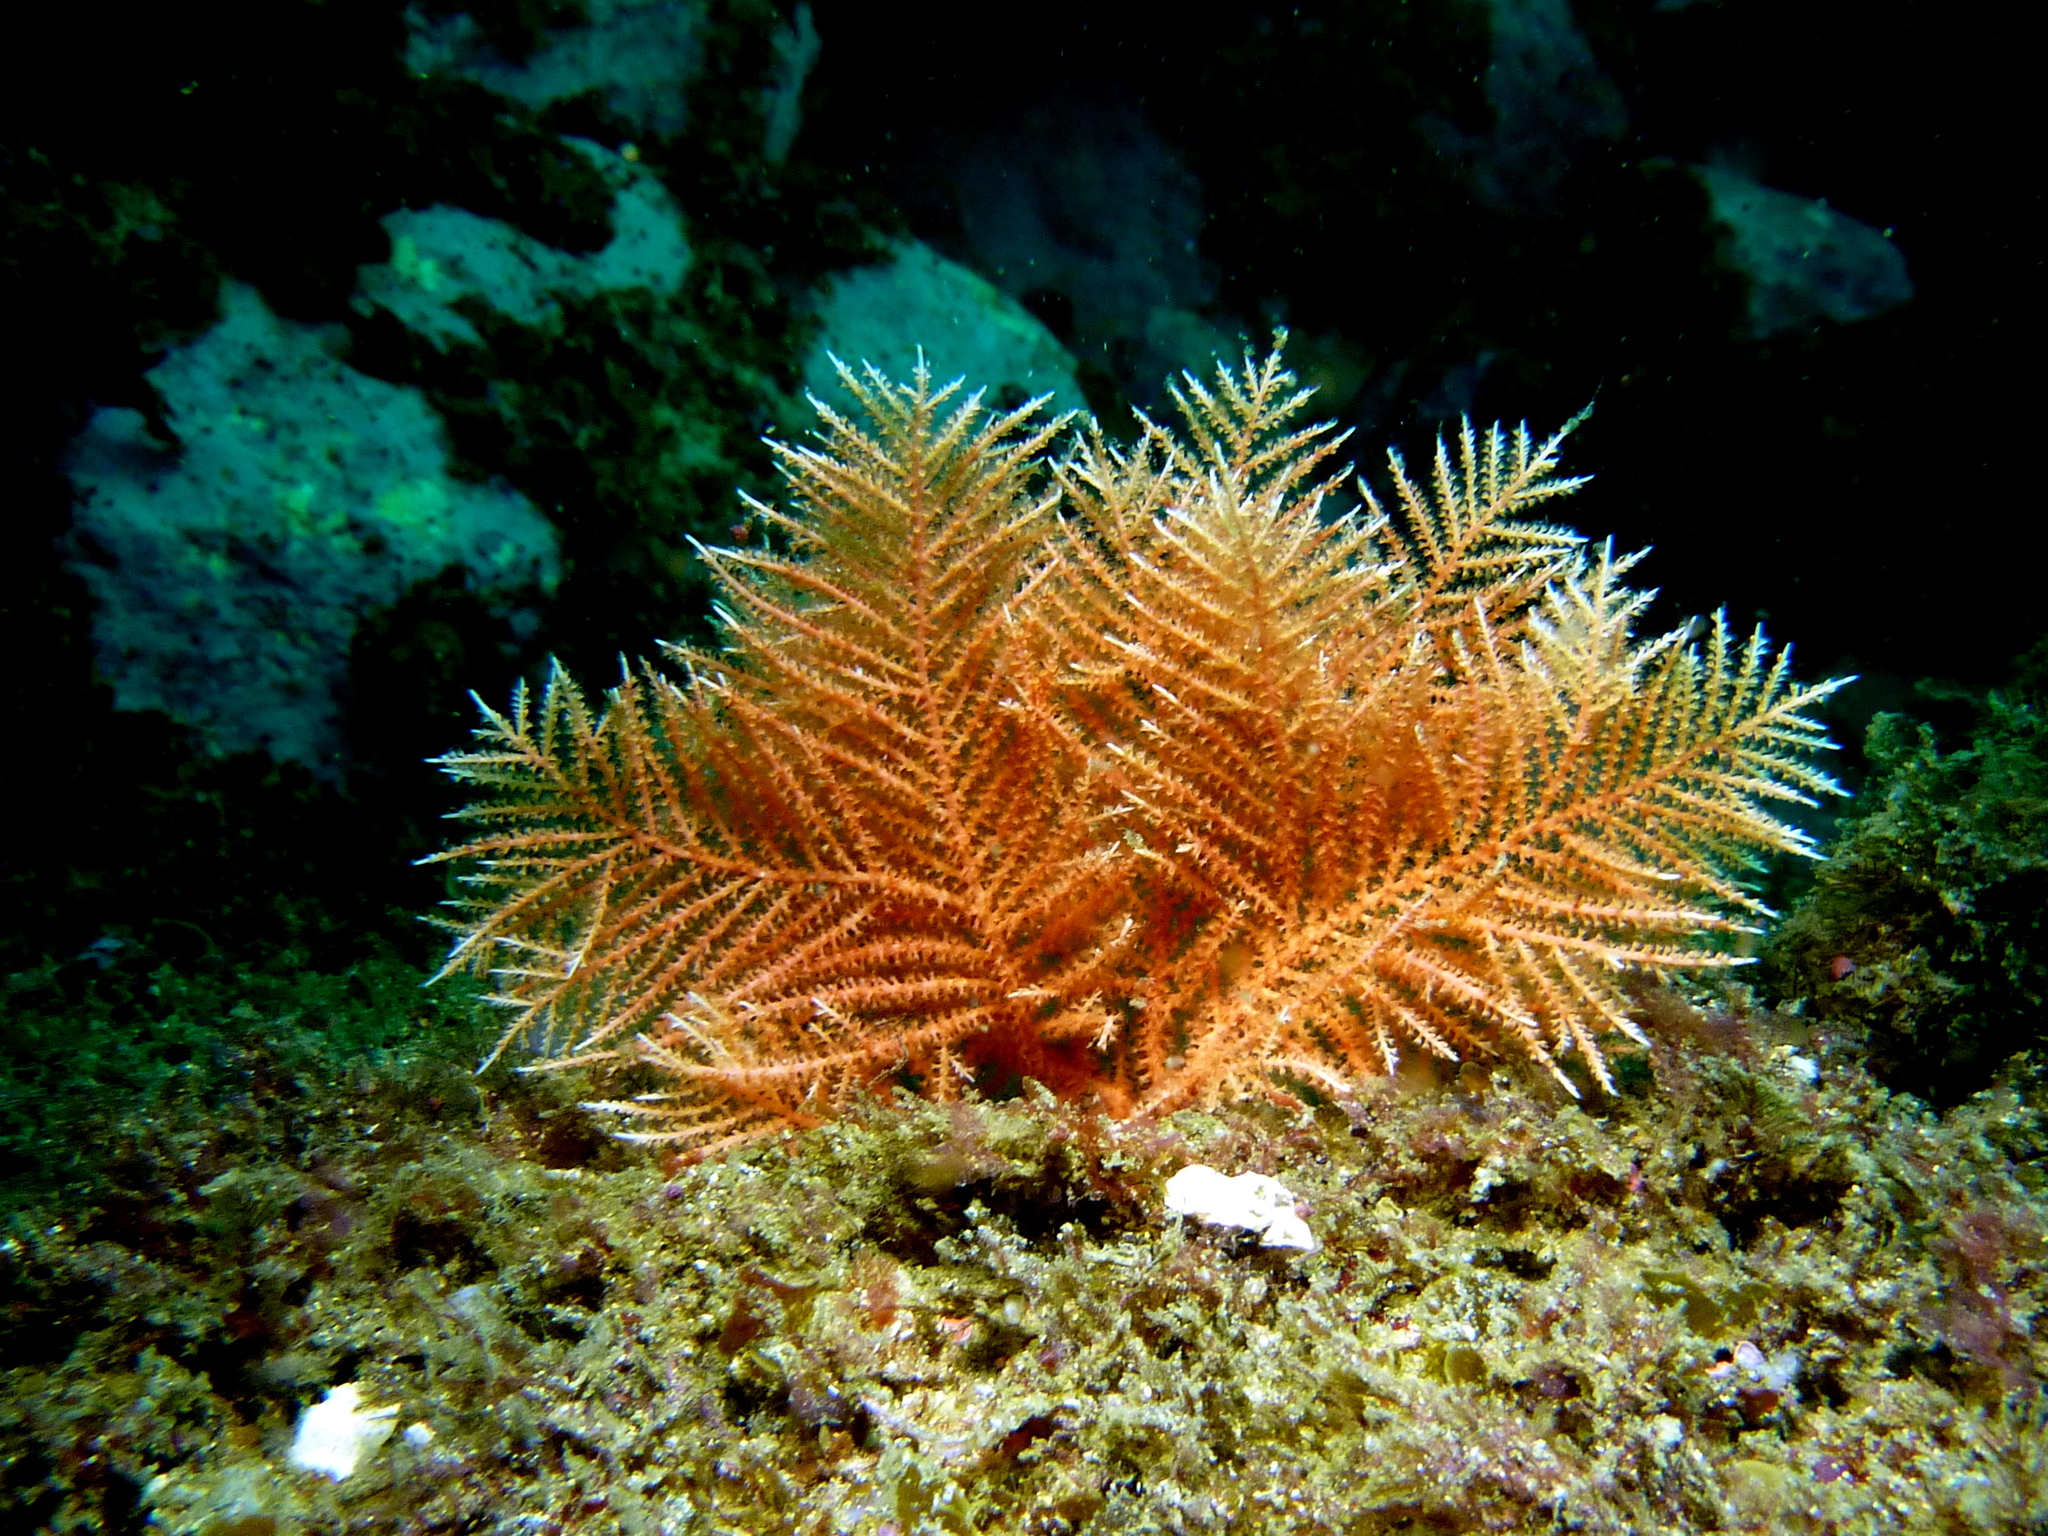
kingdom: Animalia
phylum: Cnidaria
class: Anthozoa
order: Scleralcyonacea
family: Mopseidae
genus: Pteronisis
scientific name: Pteronisis whiteleggei
